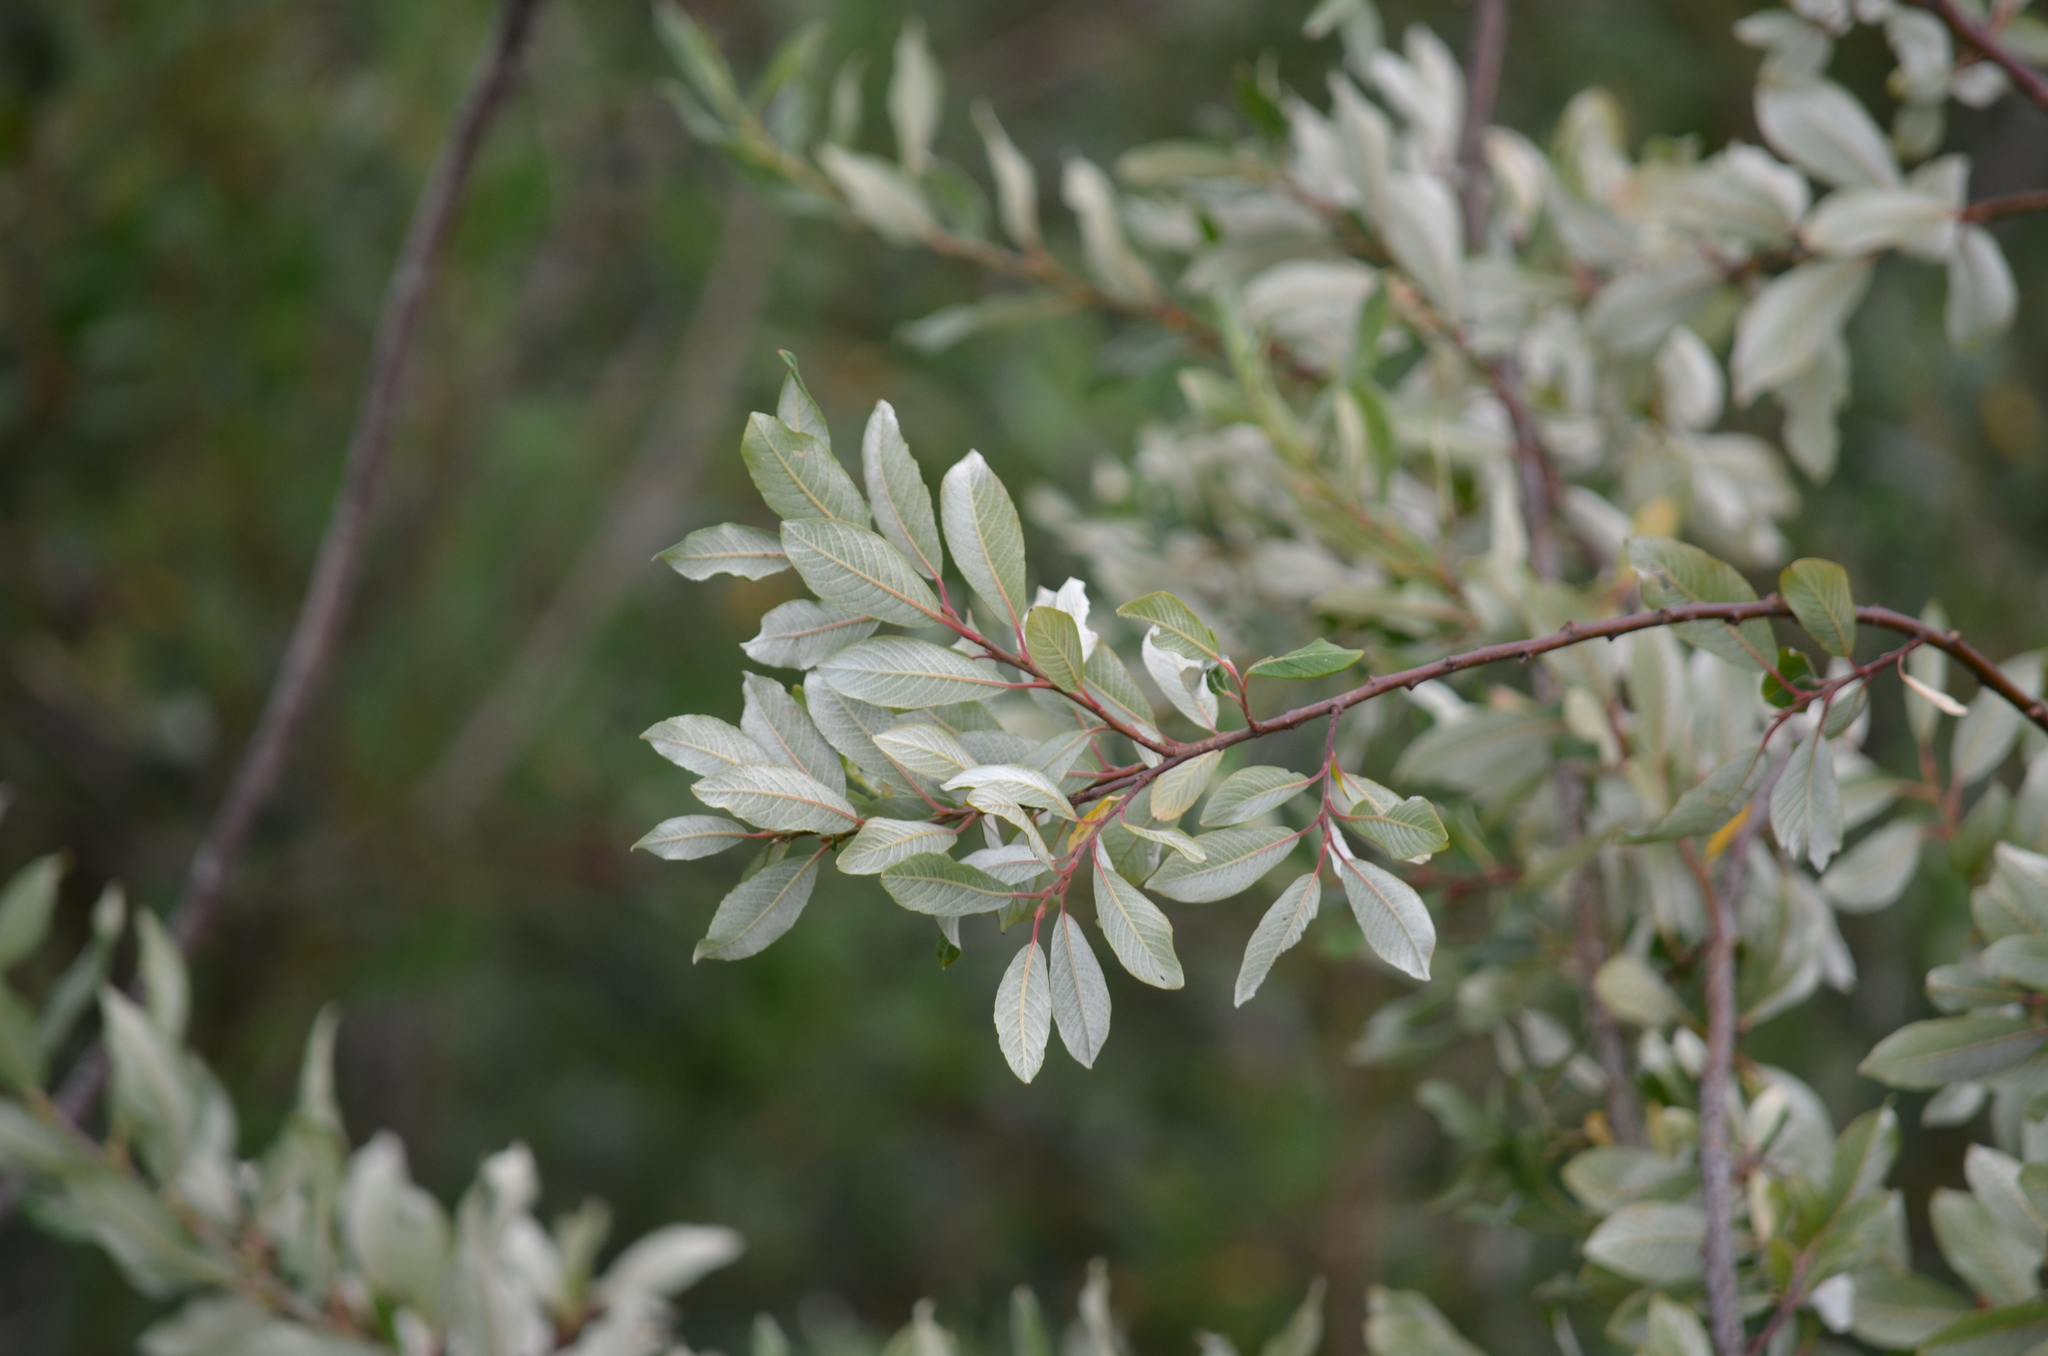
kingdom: Plantae
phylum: Tracheophyta
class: Magnoliopsida
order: Malpighiales
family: Salicaceae
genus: Salix
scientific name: Salix sitchensis
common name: Sitka willow
